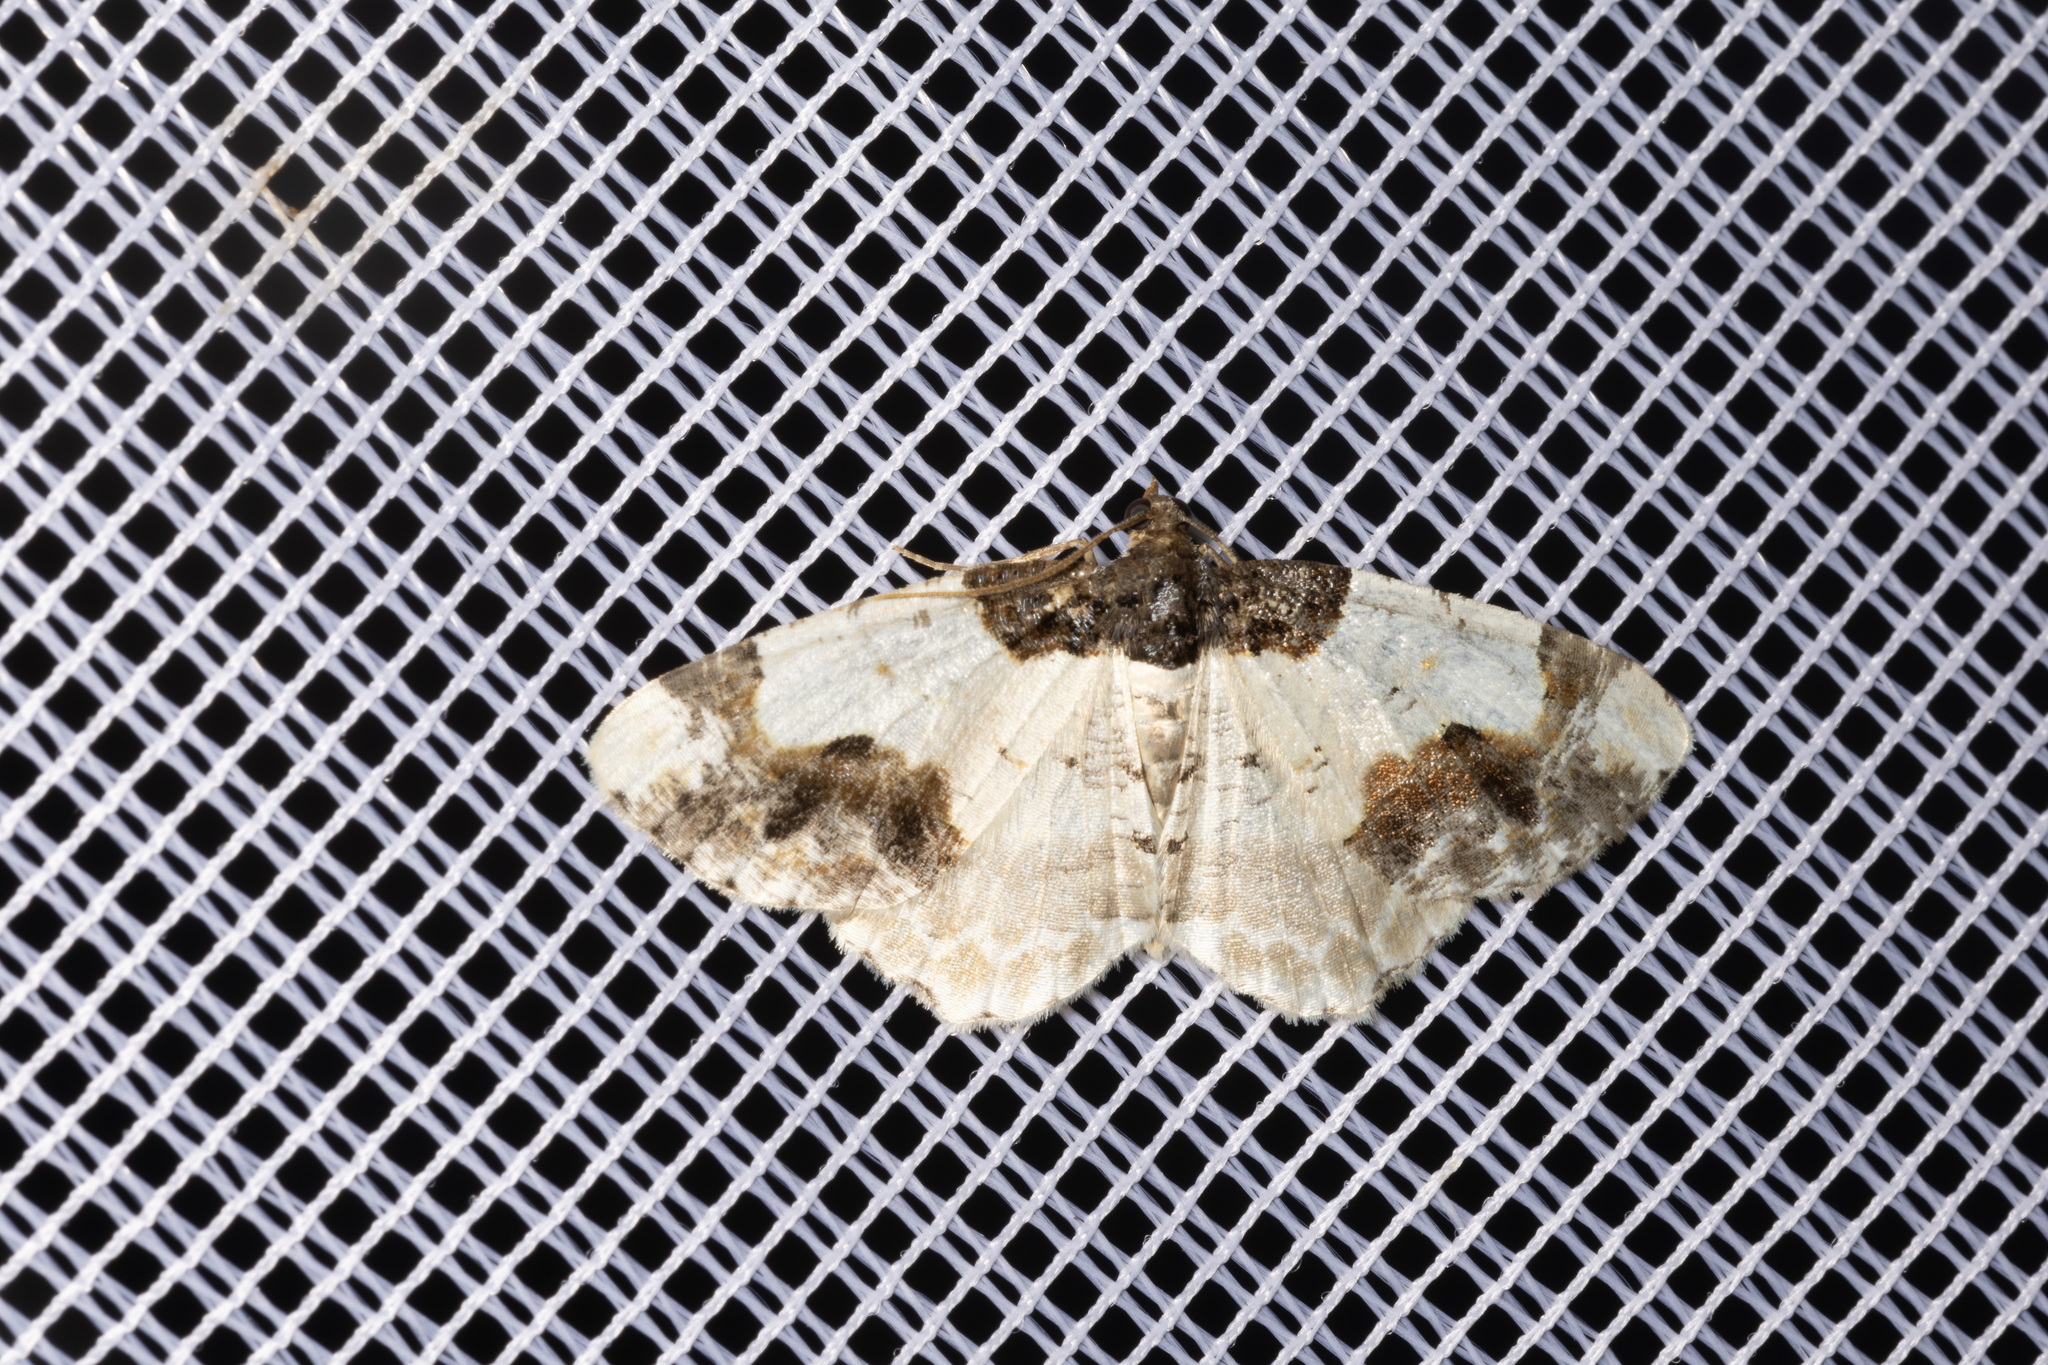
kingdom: Animalia
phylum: Arthropoda
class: Insecta
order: Lepidoptera
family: Geometridae
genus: Ligdia
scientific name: Ligdia adustata
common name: Scorched carpet
